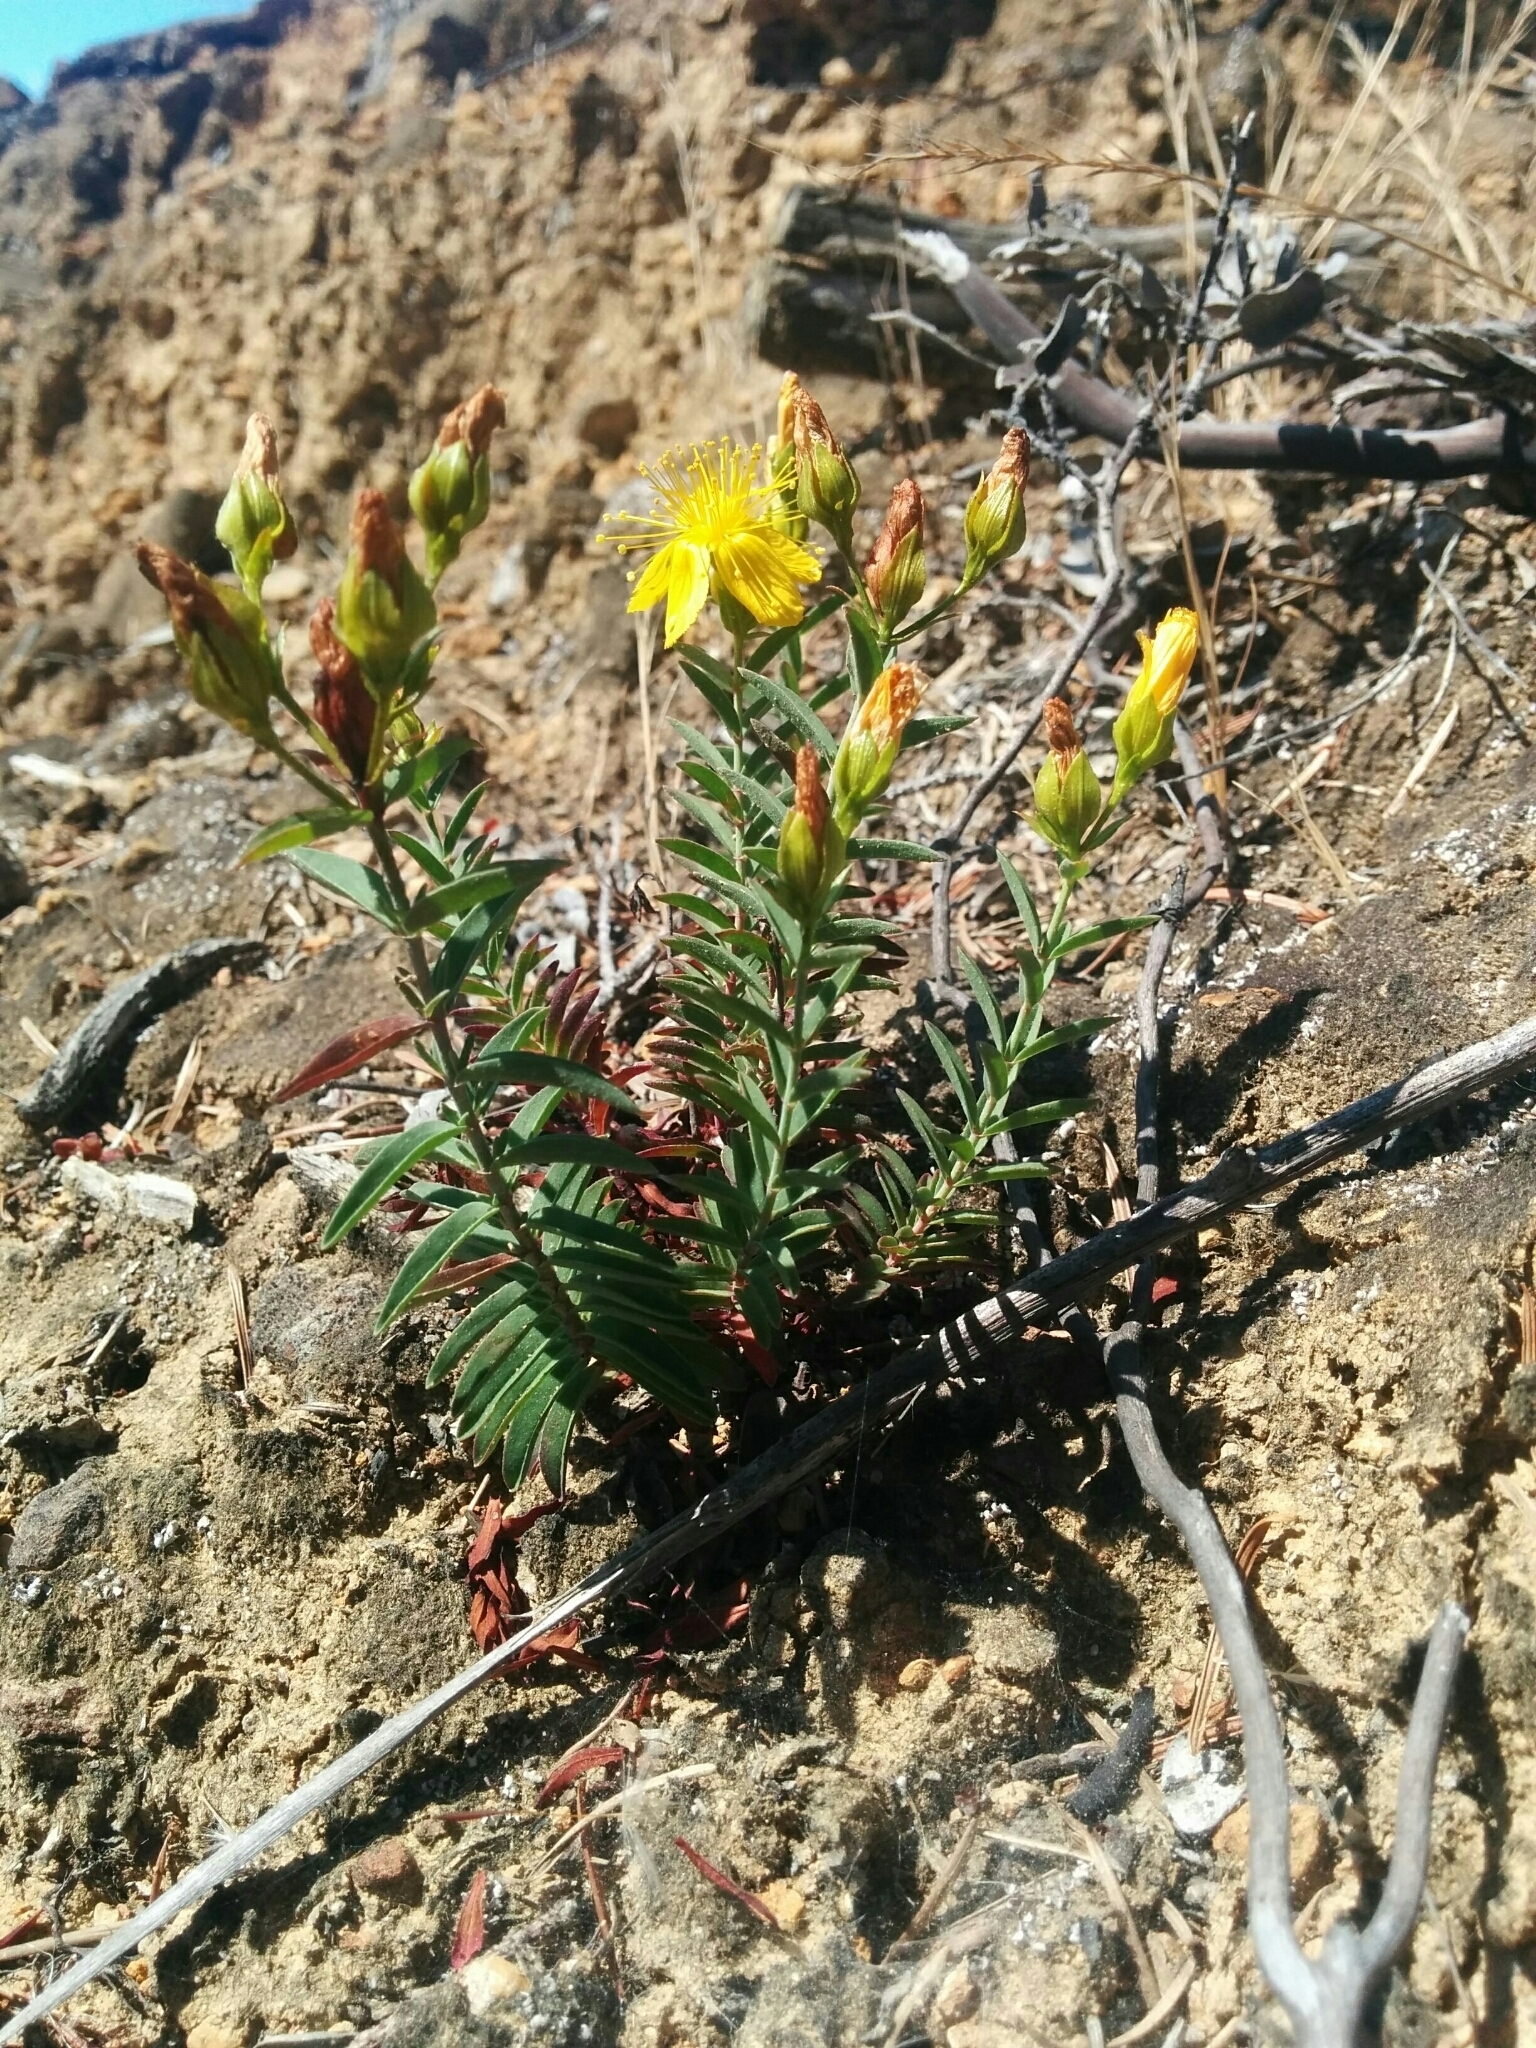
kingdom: Plantae
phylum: Tracheophyta
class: Magnoliopsida
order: Malpighiales
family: Hypericaceae
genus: Hypericum
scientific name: Hypericum concinnum
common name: Gold-wire
